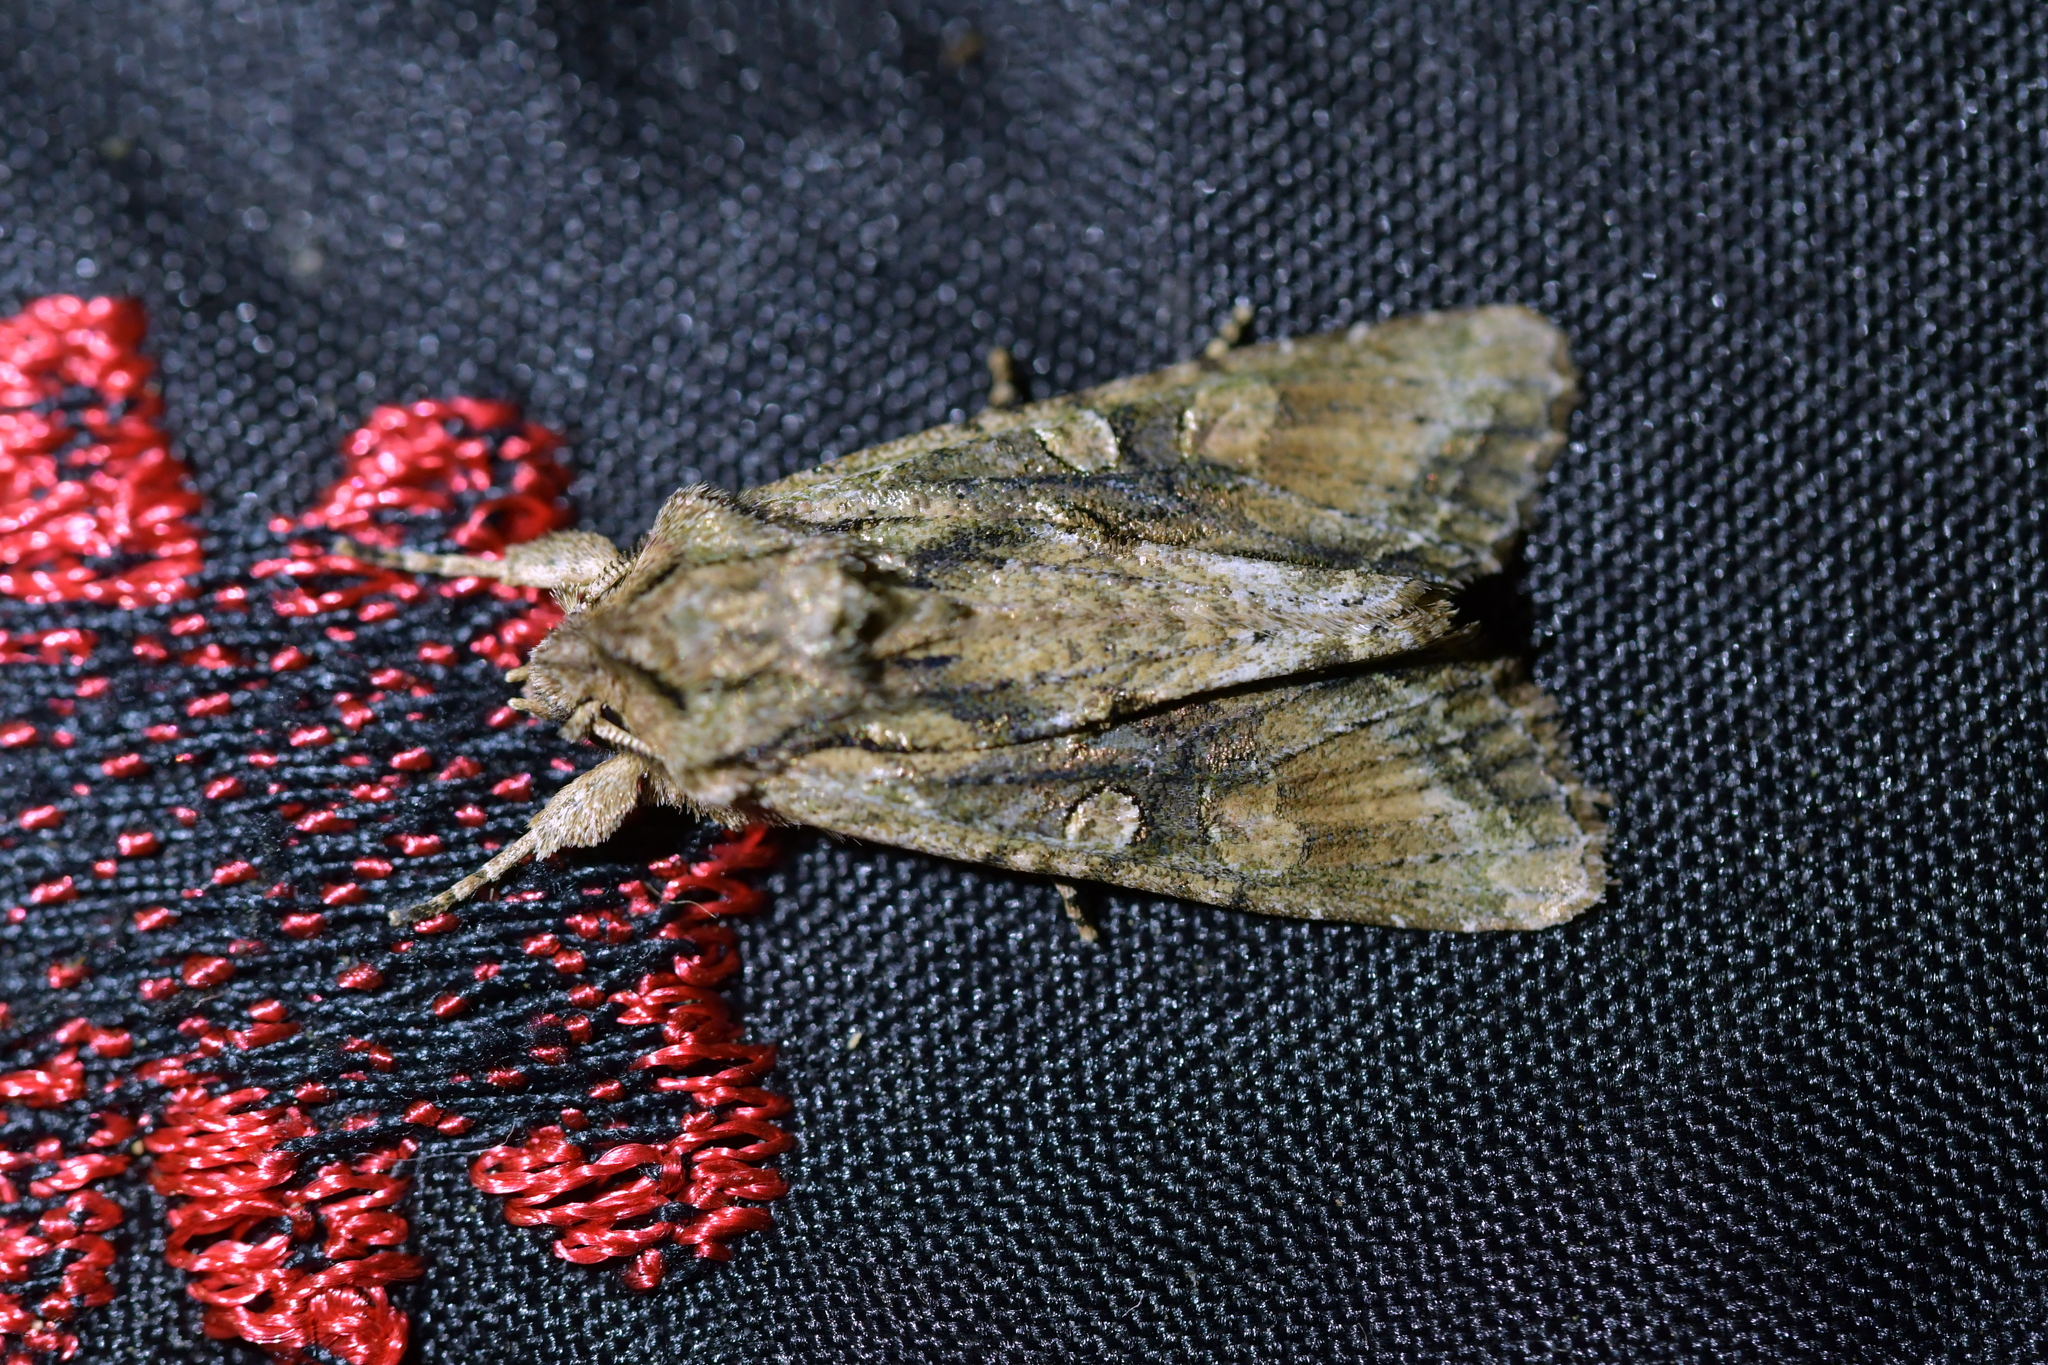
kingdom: Animalia
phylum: Arthropoda
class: Insecta
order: Lepidoptera
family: Noctuidae
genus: Ichneutica
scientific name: Ichneutica mutans
